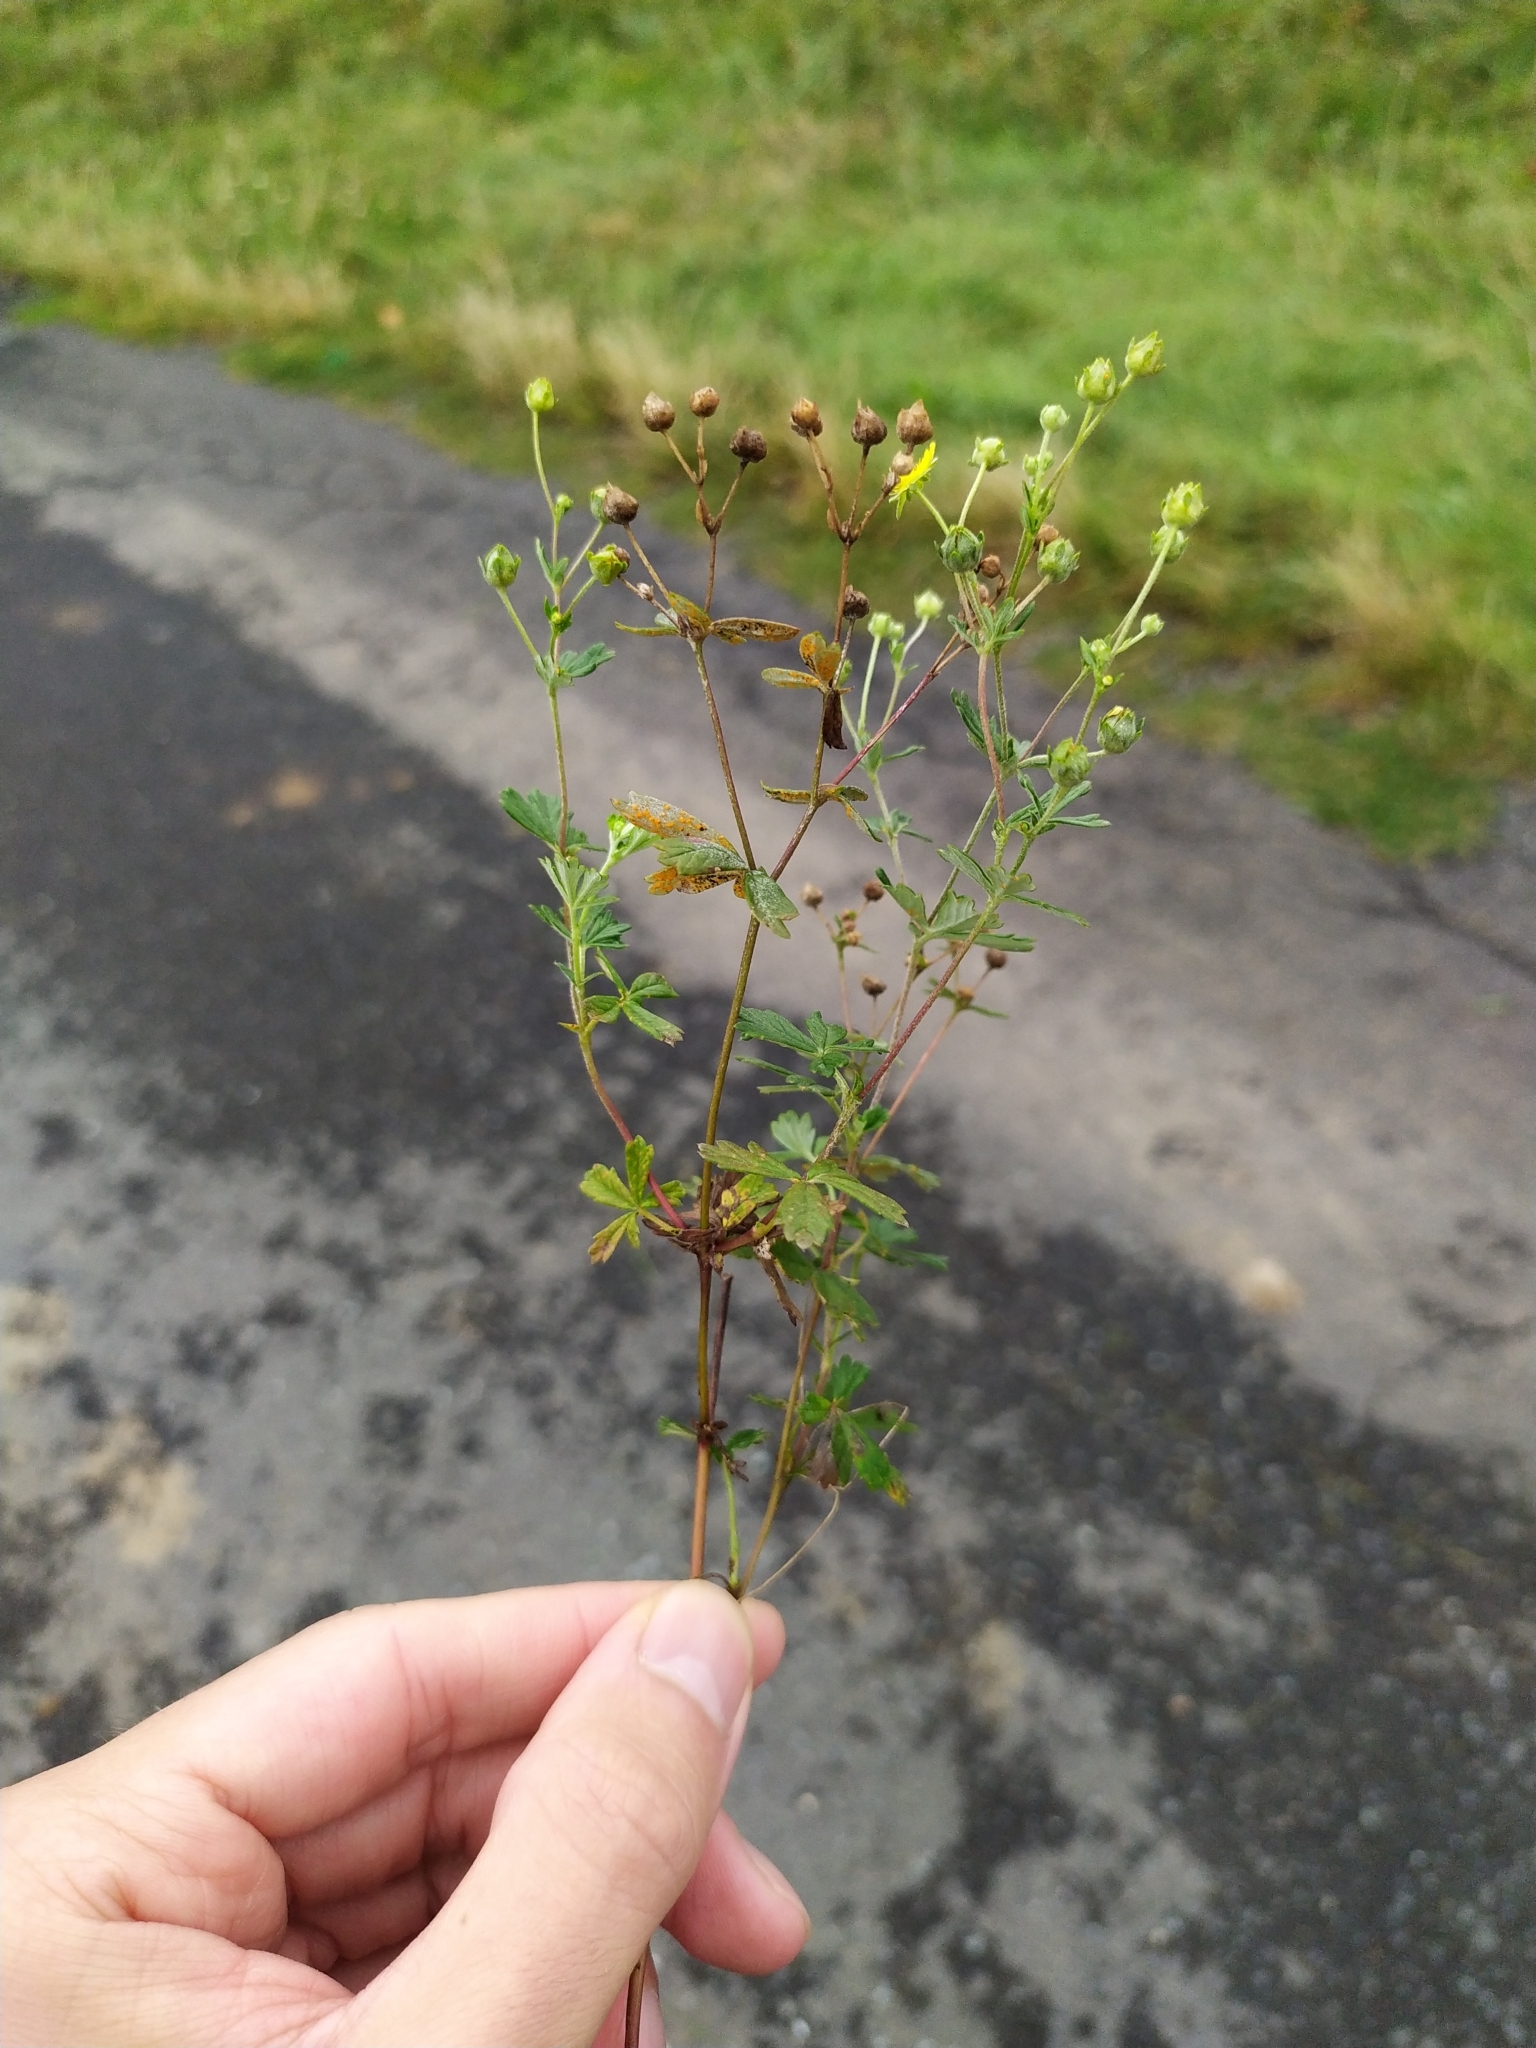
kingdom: Plantae
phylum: Tracheophyta
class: Magnoliopsida
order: Rosales
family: Rosaceae
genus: Potentilla
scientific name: Potentilla argentea
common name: Hoary cinquefoil
